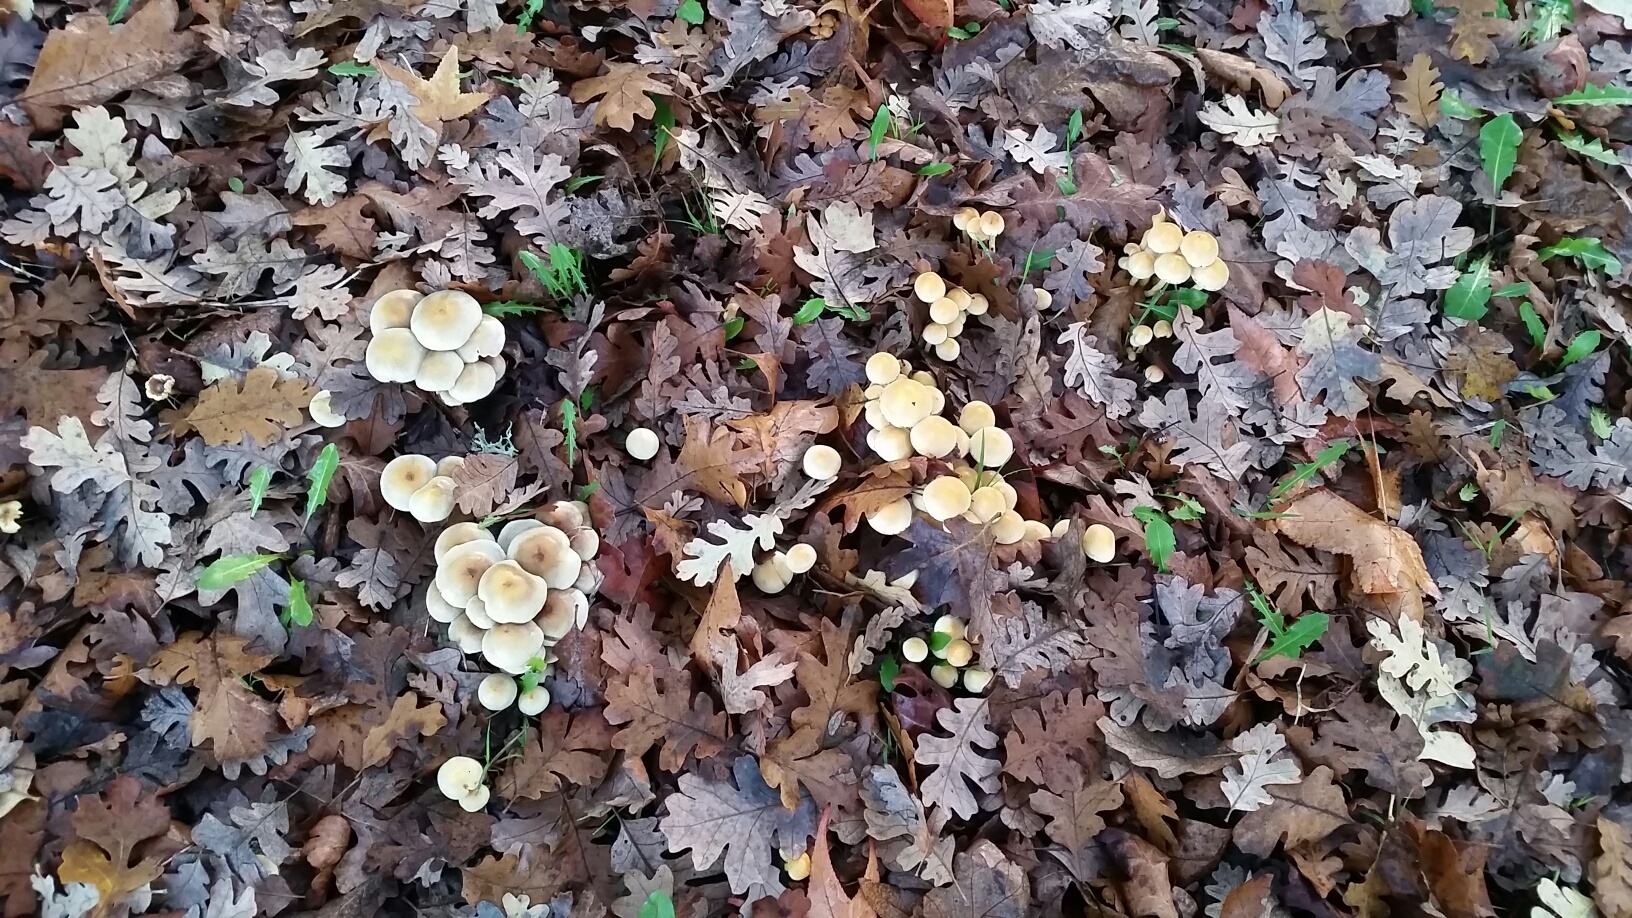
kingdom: Fungi
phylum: Basidiomycota
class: Agaricomycetes
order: Agaricales
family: Strophariaceae
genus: Hypholoma
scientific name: Hypholoma fasciculare
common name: Sulphur tuft
